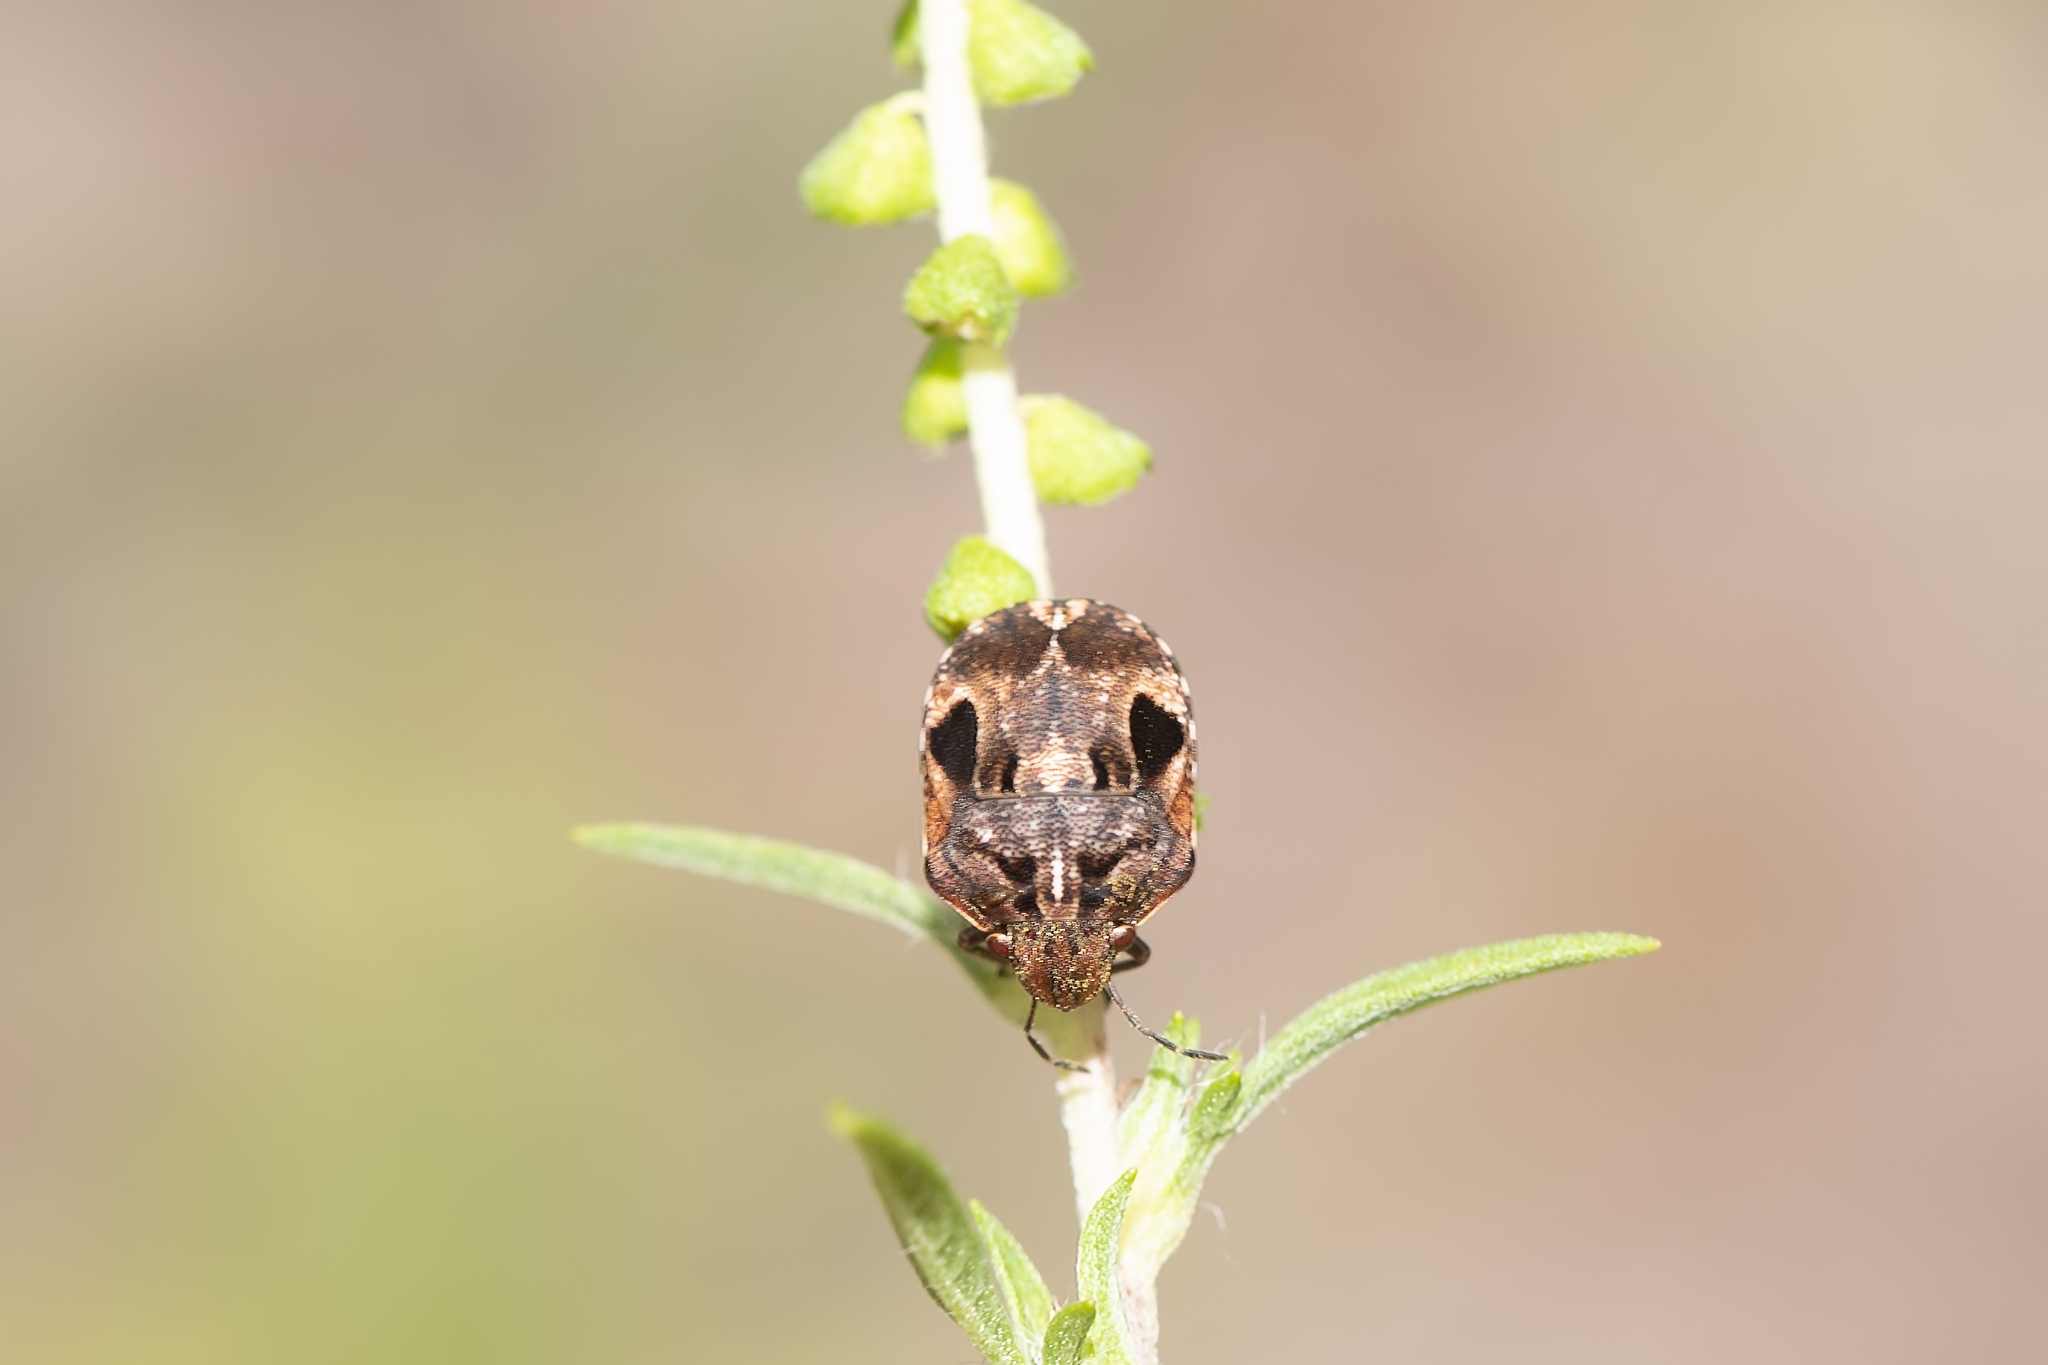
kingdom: Animalia
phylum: Arthropoda
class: Insecta
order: Hemiptera
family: Scutelleridae
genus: Homaemus
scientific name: Homaemus proteus
